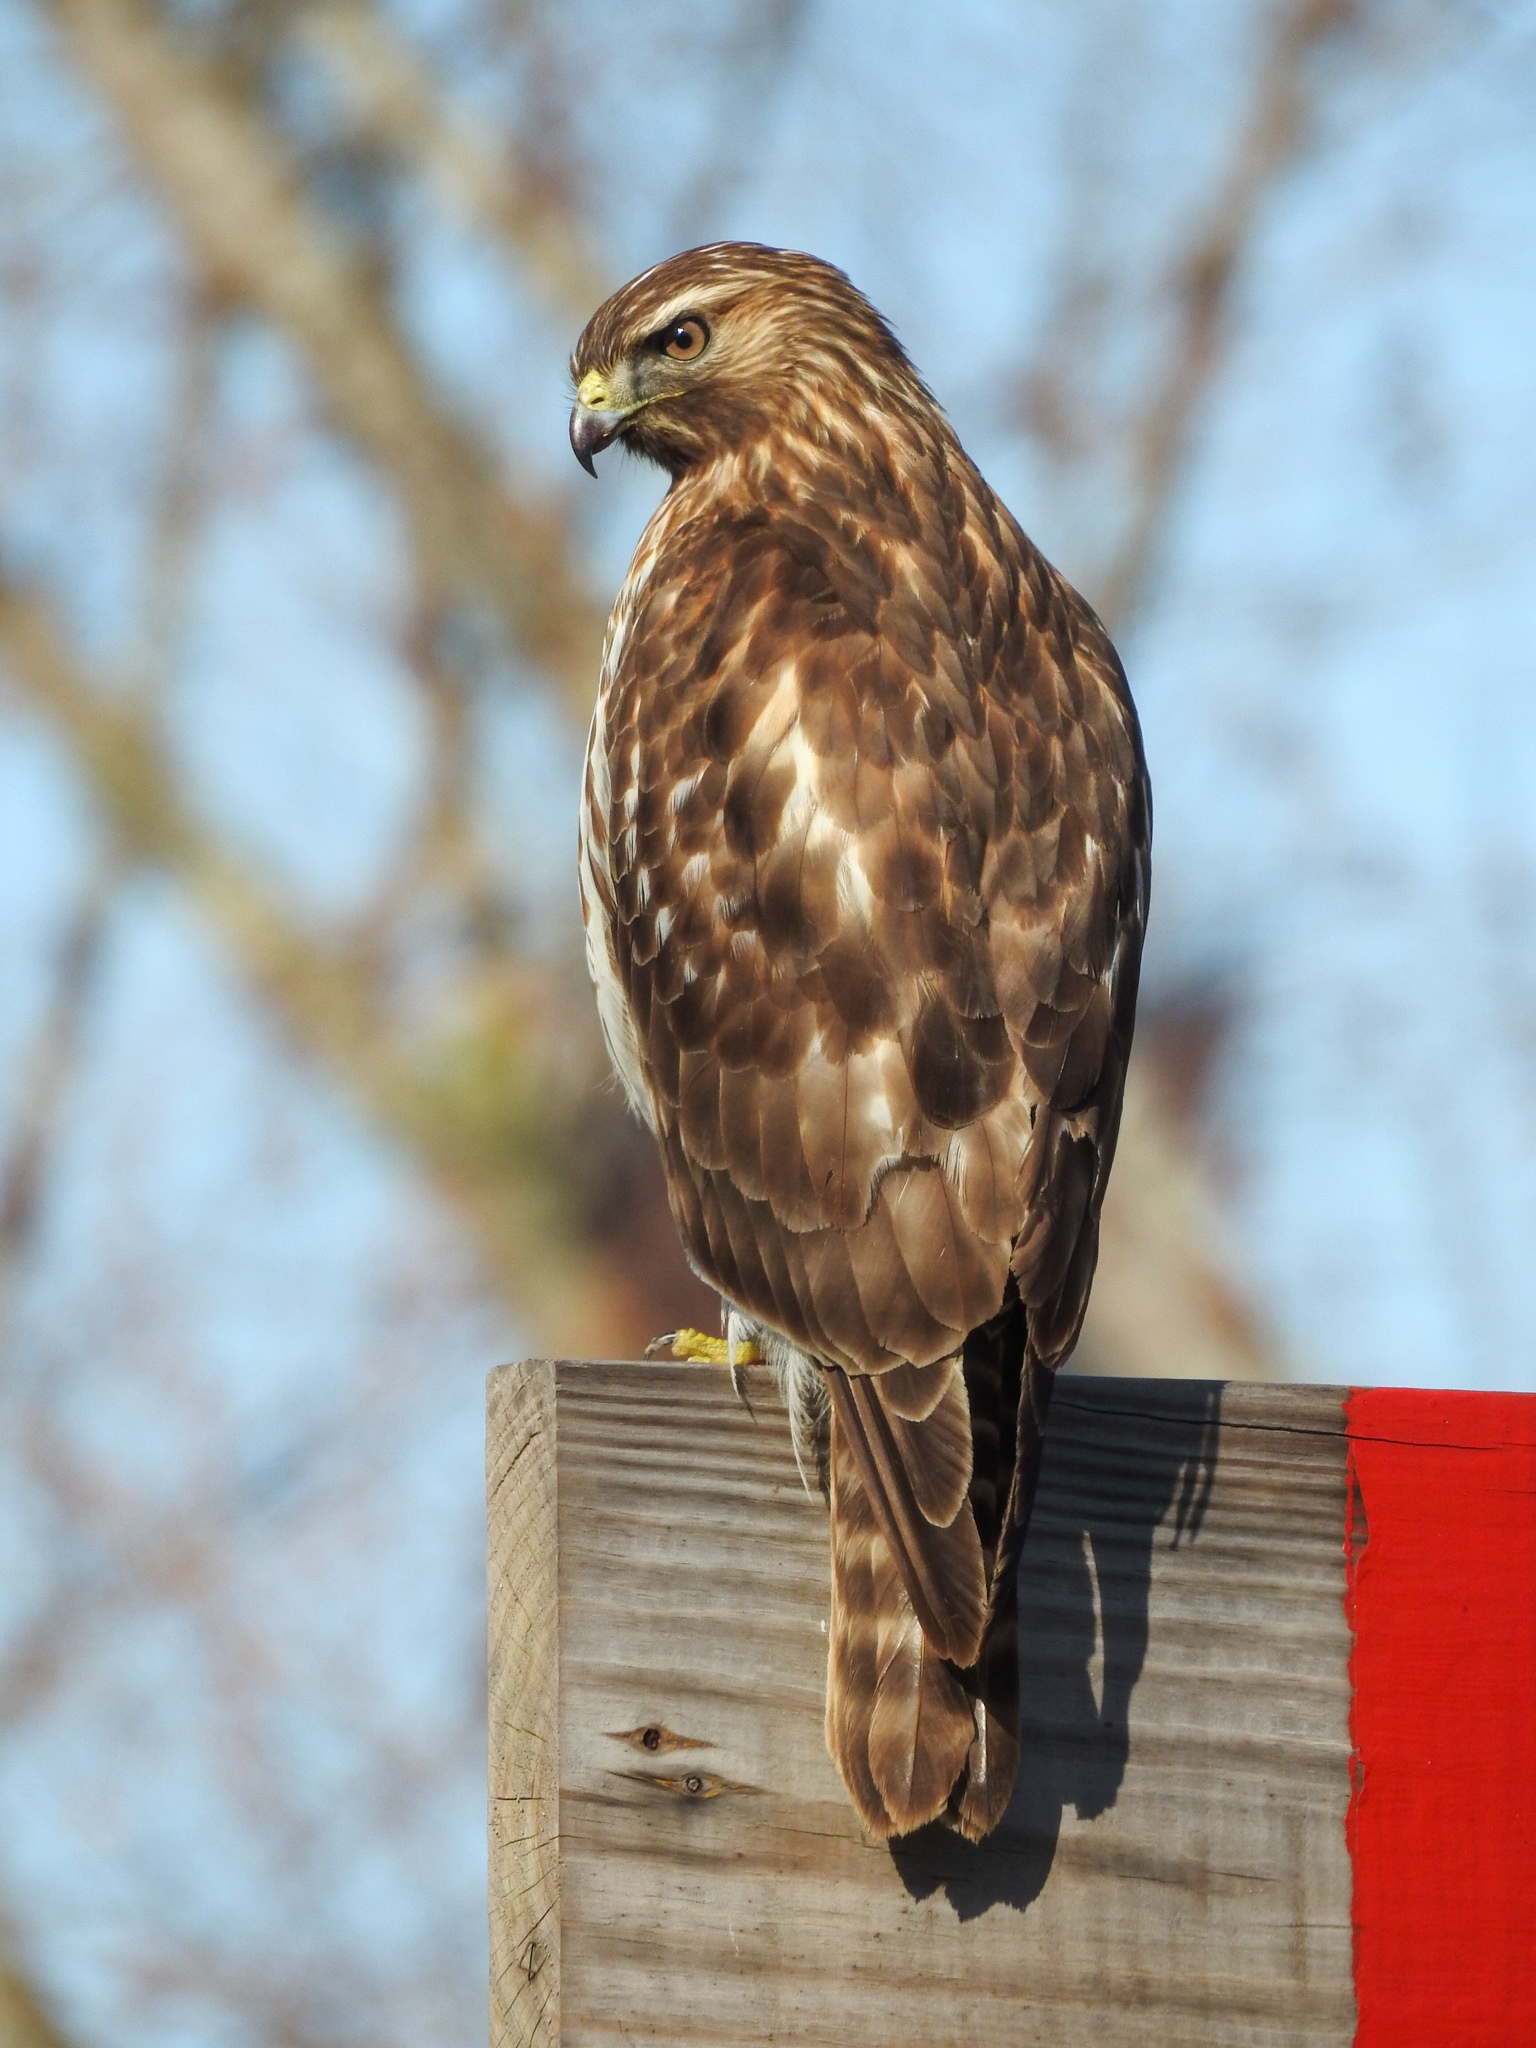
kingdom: Animalia
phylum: Chordata
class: Aves
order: Accipitriformes
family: Accipitridae
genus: Buteo
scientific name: Buteo lineatus
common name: Red-shouldered hawk
